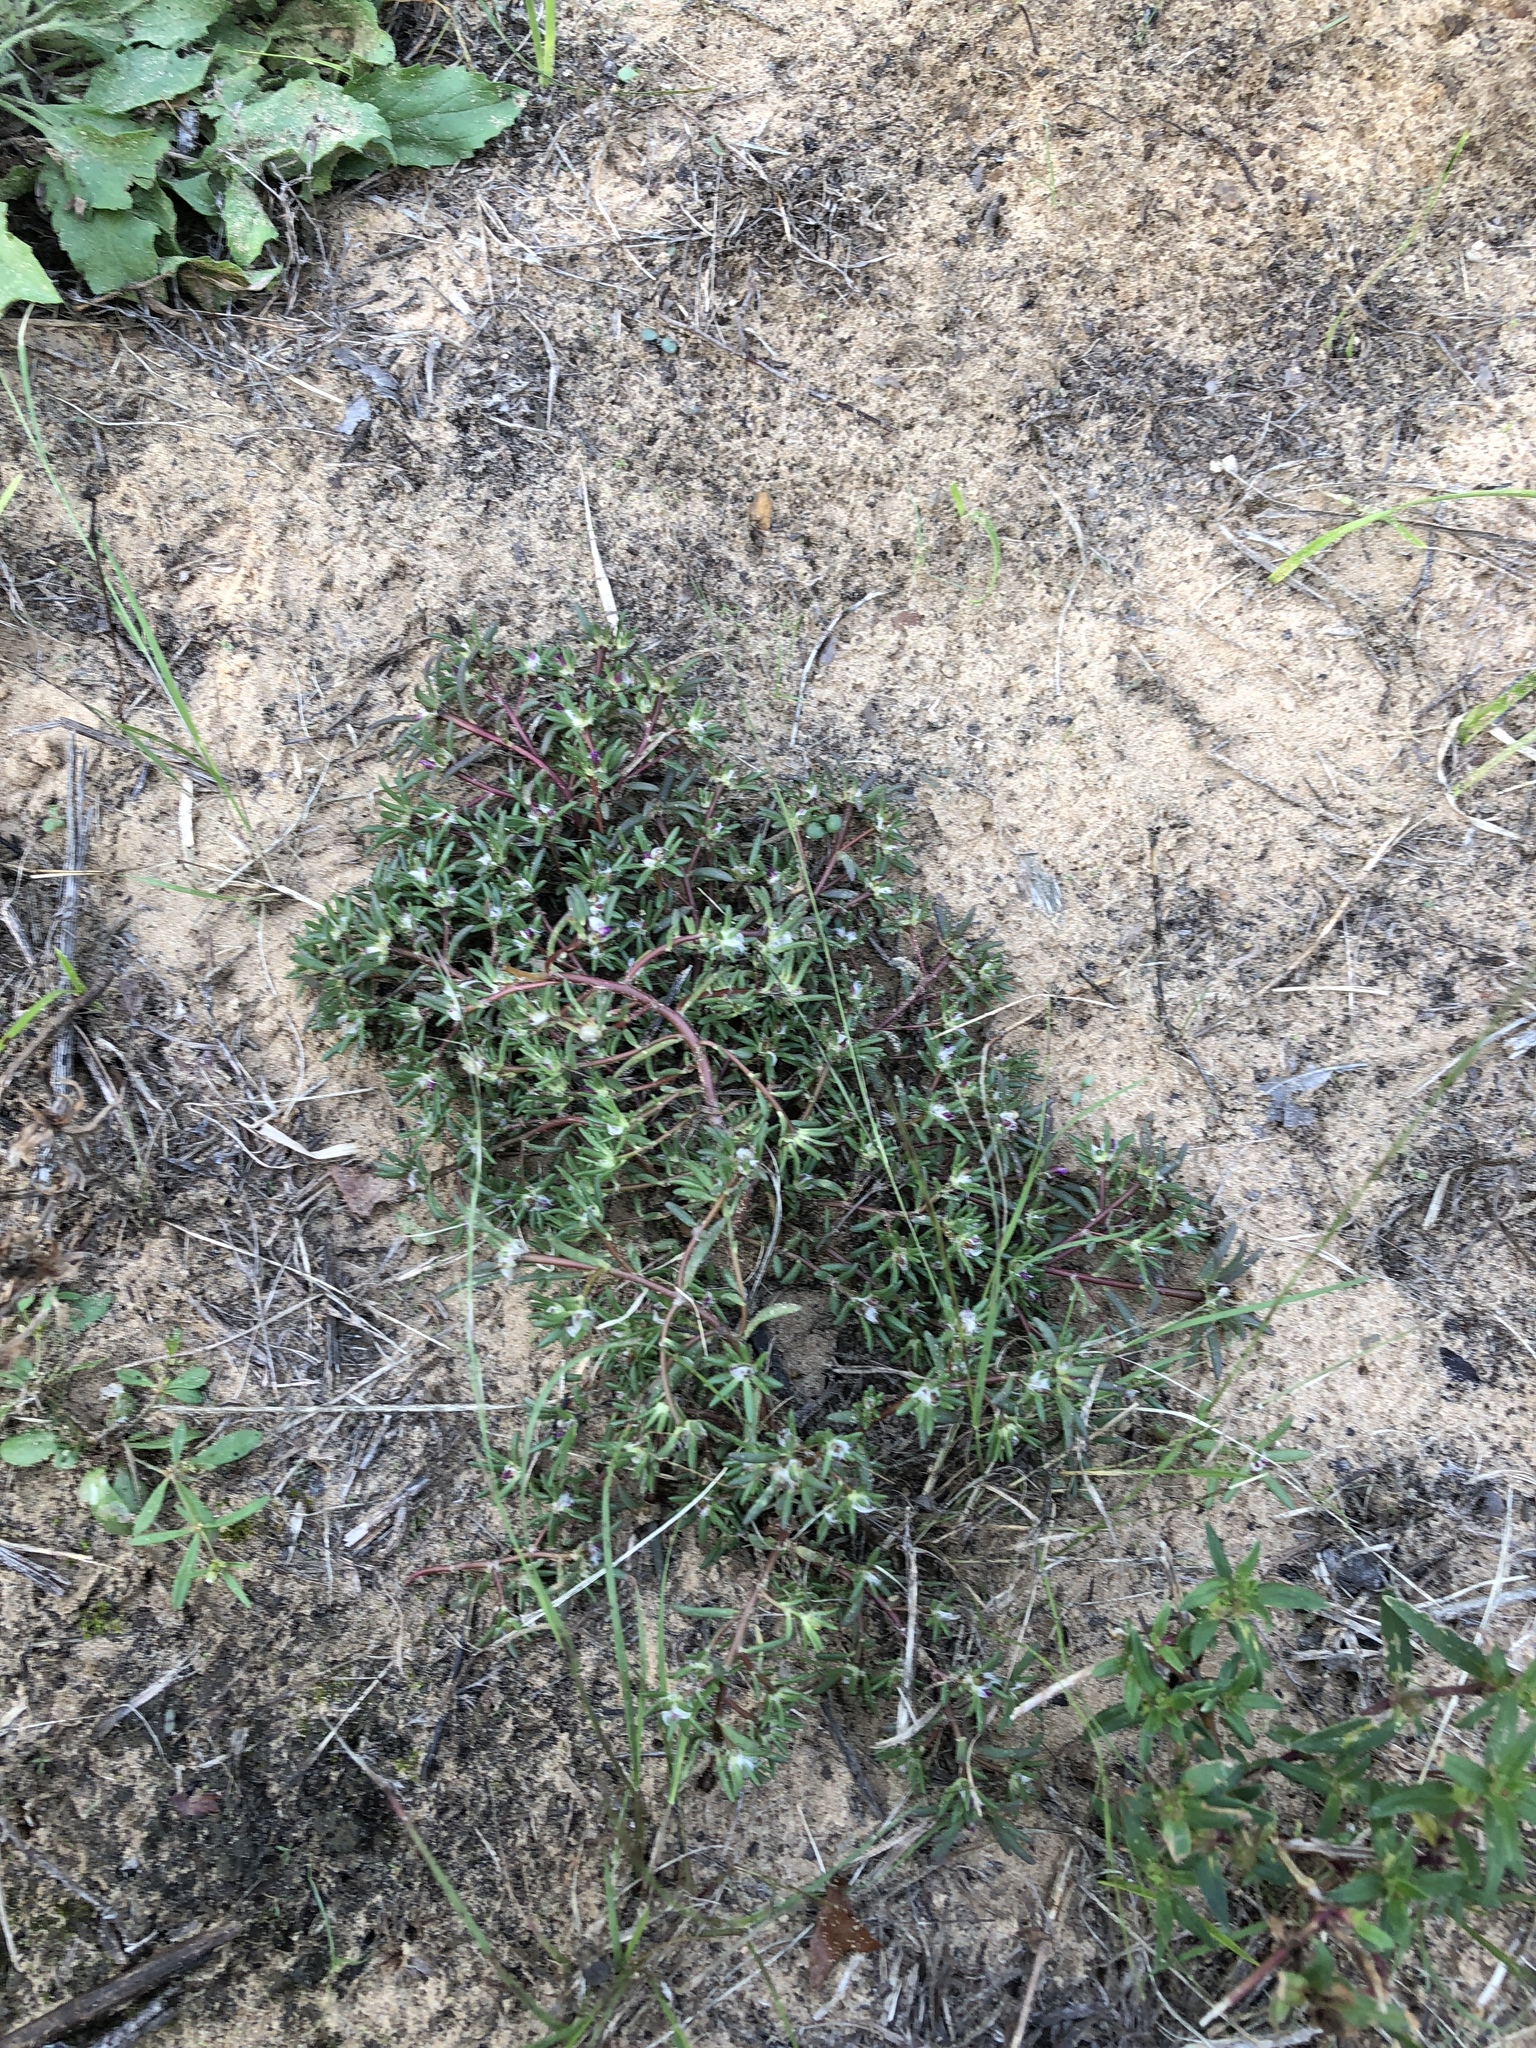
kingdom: Plantae
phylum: Tracheophyta
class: Magnoliopsida
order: Caryophyllales
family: Portulacaceae
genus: Portulaca
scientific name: Portulaca pilosa
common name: Kiss me quick
